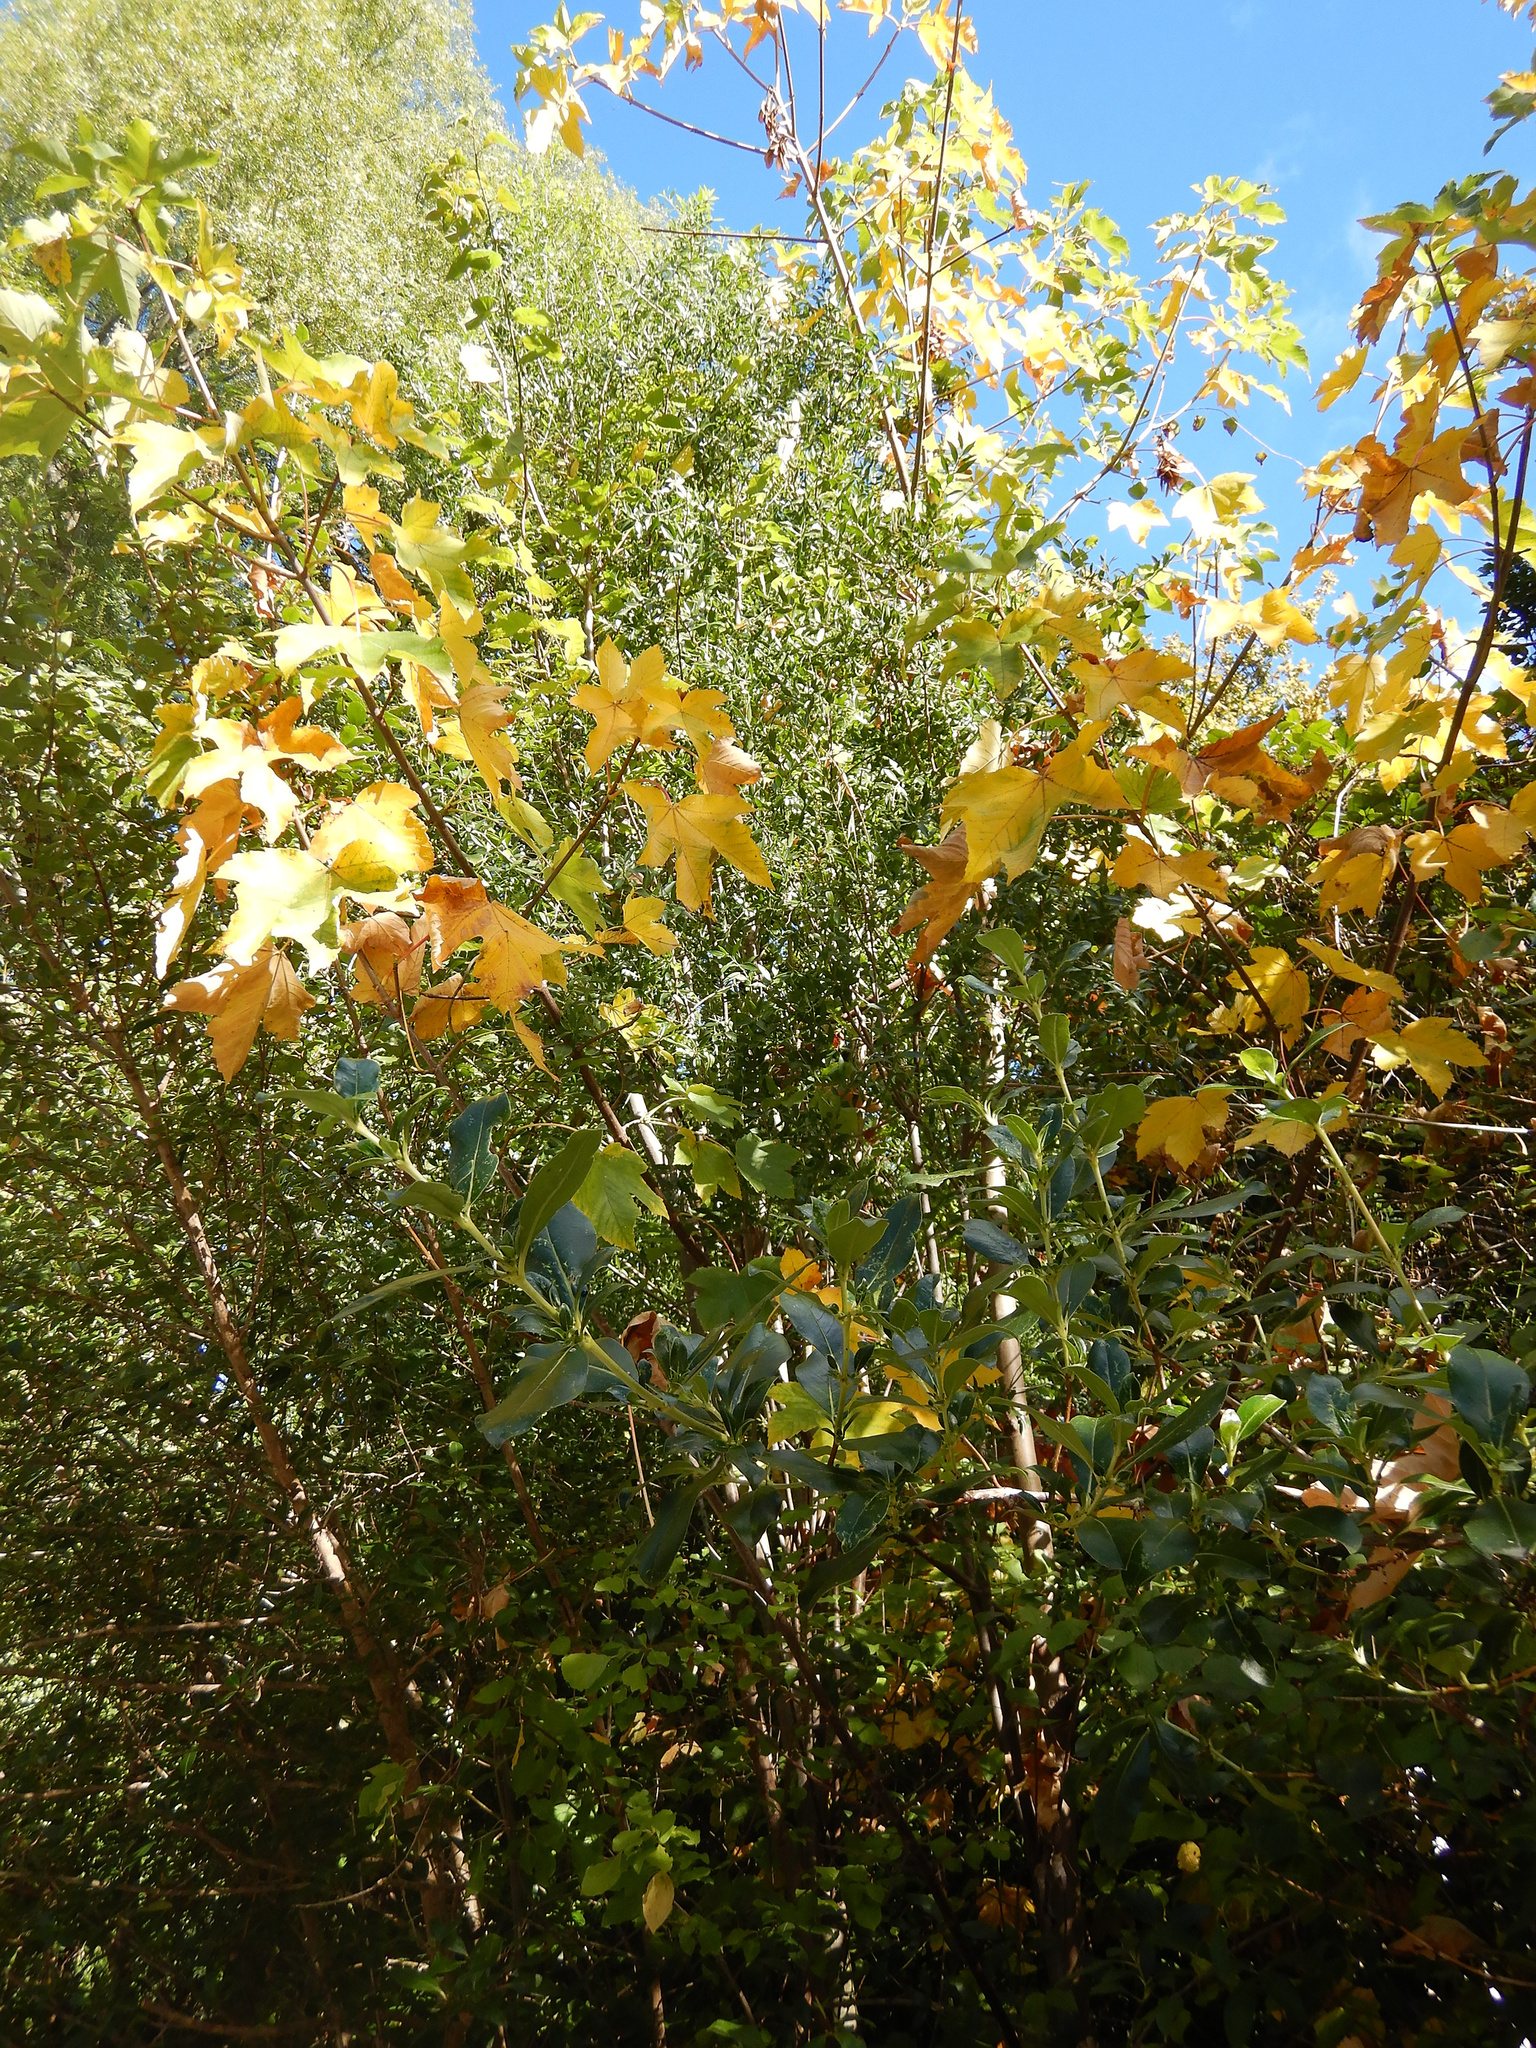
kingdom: Plantae
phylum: Tracheophyta
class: Magnoliopsida
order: Sapindales
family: Sapindaceae
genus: Acer
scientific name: Acer pseudoplatanus
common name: Sycamore
